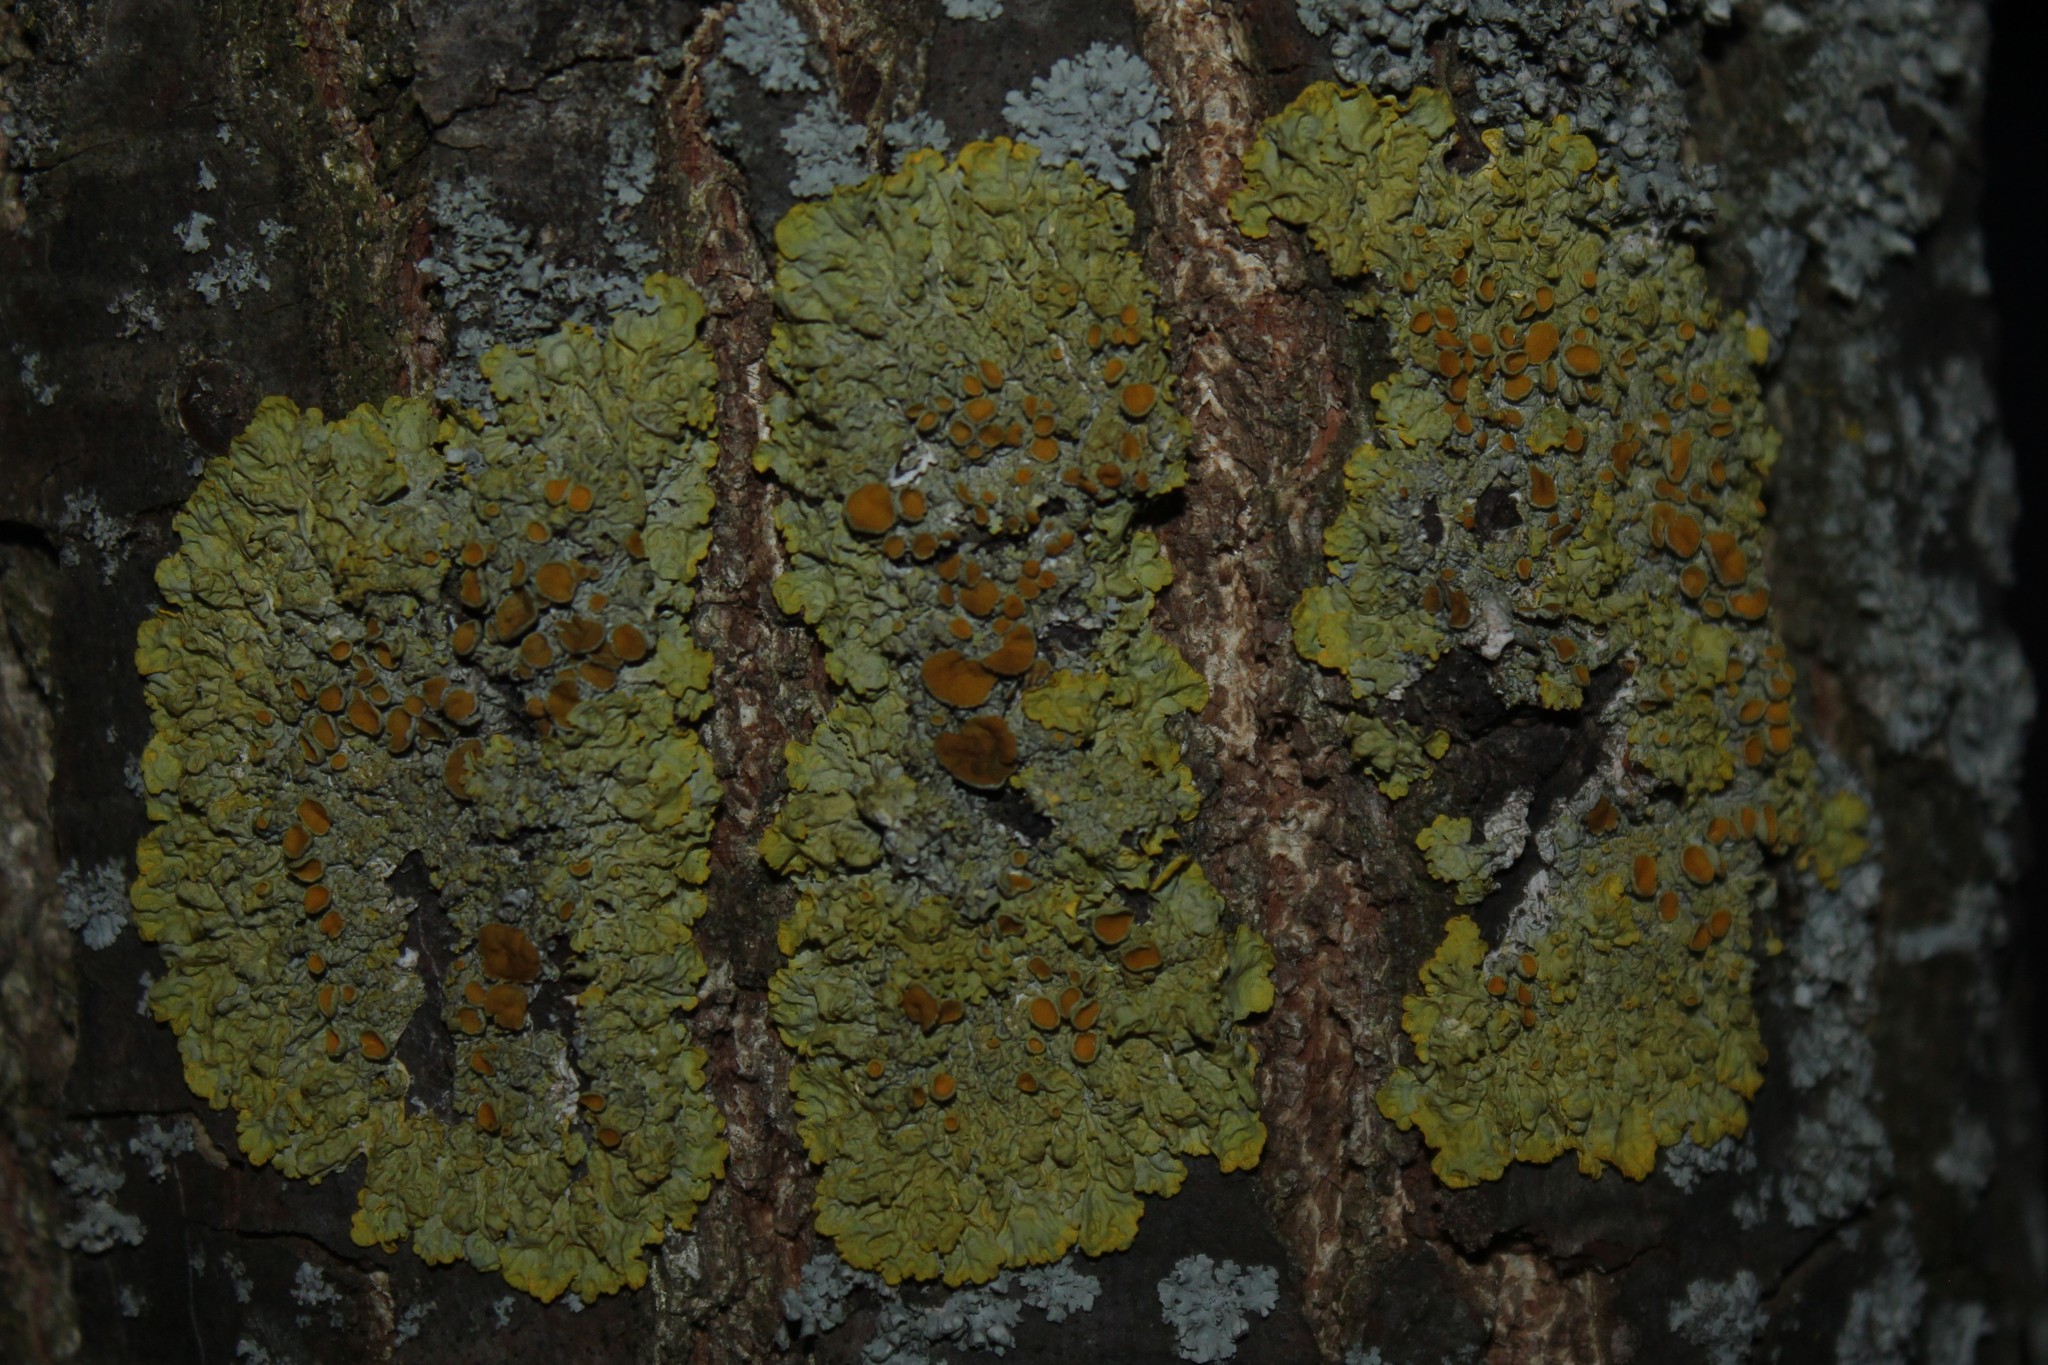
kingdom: Fungi
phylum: Ascomycota
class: Lecanoromycetes
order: Teloschistales
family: Teloschistaceae
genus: Xanthoria
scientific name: Xanthoria parietina
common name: Common orange lichen
